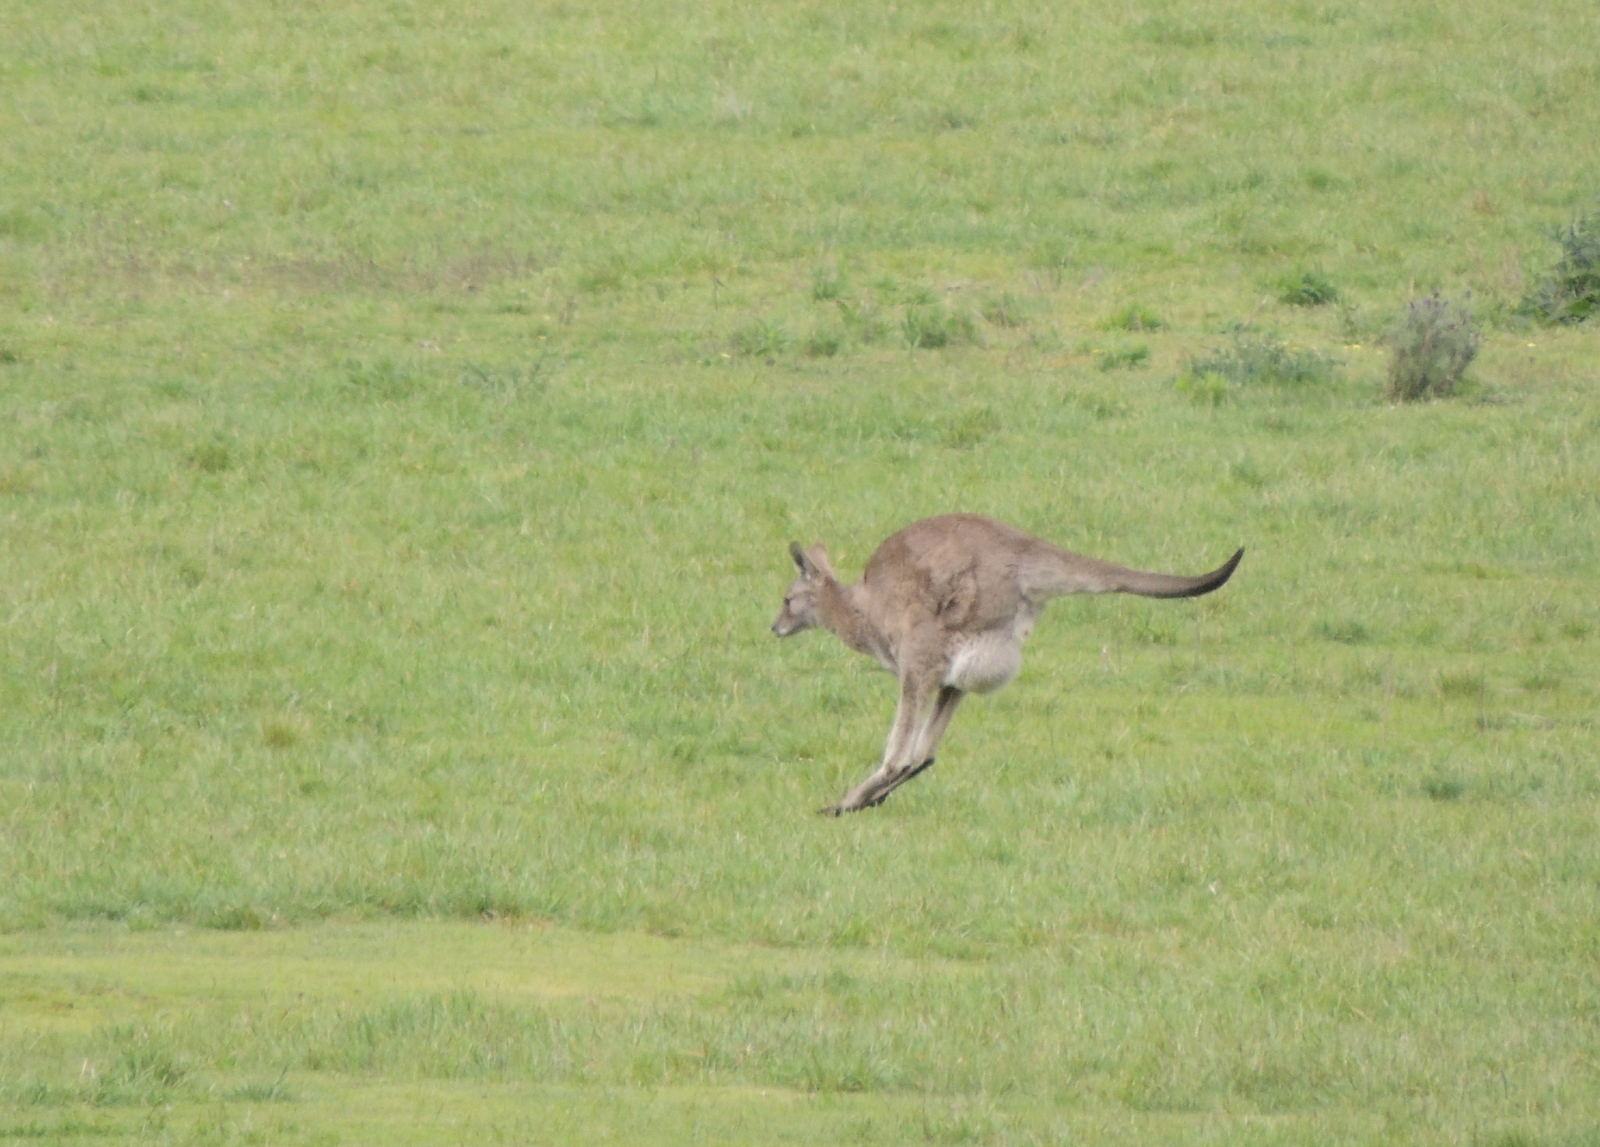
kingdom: Animalia
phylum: Chordata
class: Mammalia
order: Diprotodontia
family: Macropodidae
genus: Macropus
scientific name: Macropus giganteus
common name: Eastern grey kangaroo
